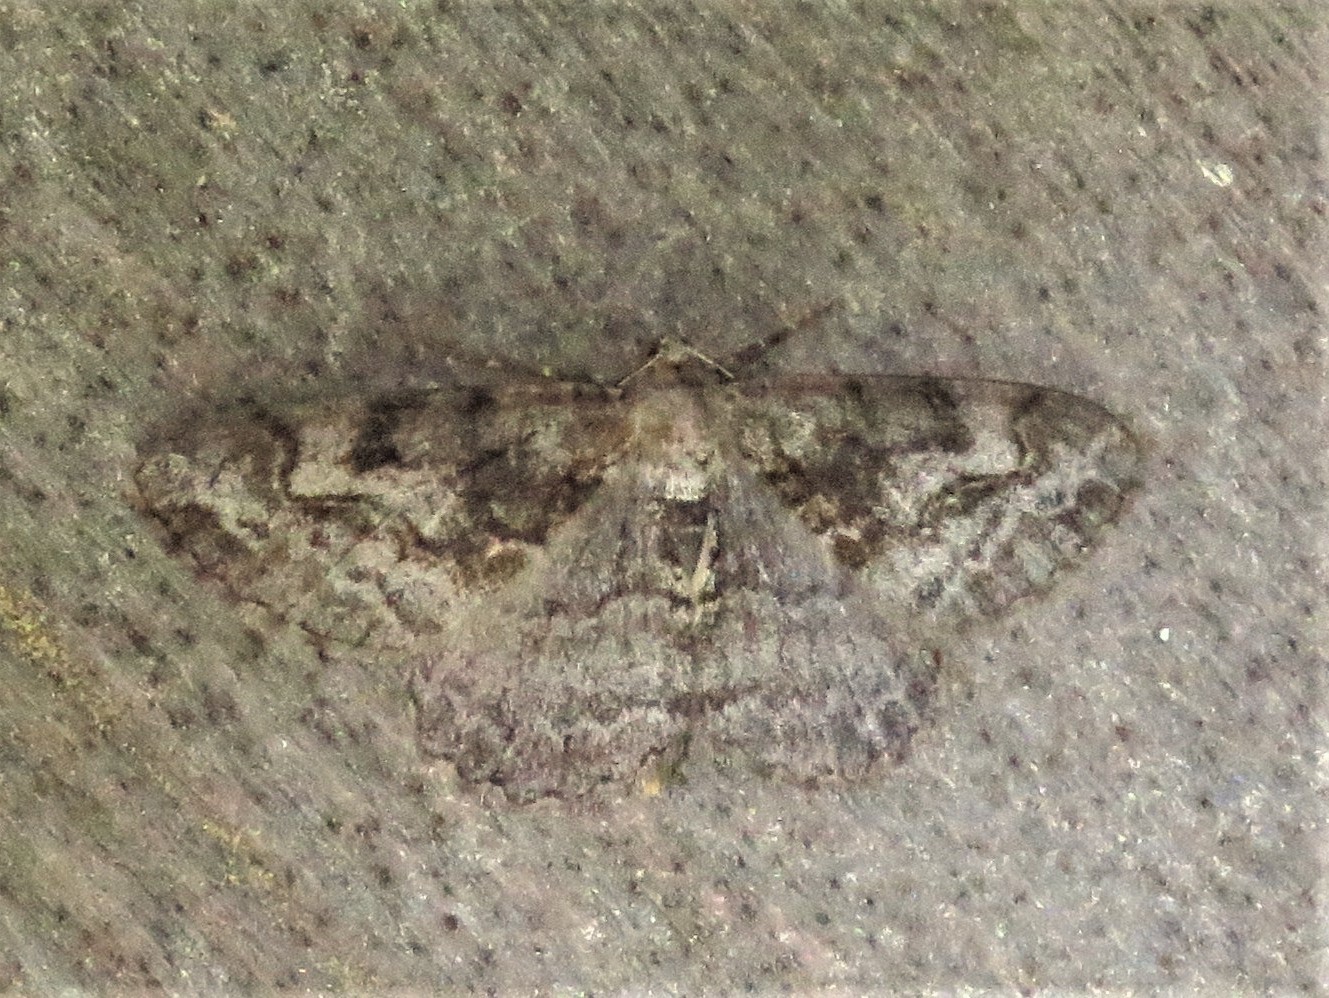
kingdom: Animalia
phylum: Arthropoda
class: Insecta
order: Lepidoptera
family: Geometridae
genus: Alcis
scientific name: Alcis repandata
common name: Mottled beauty
